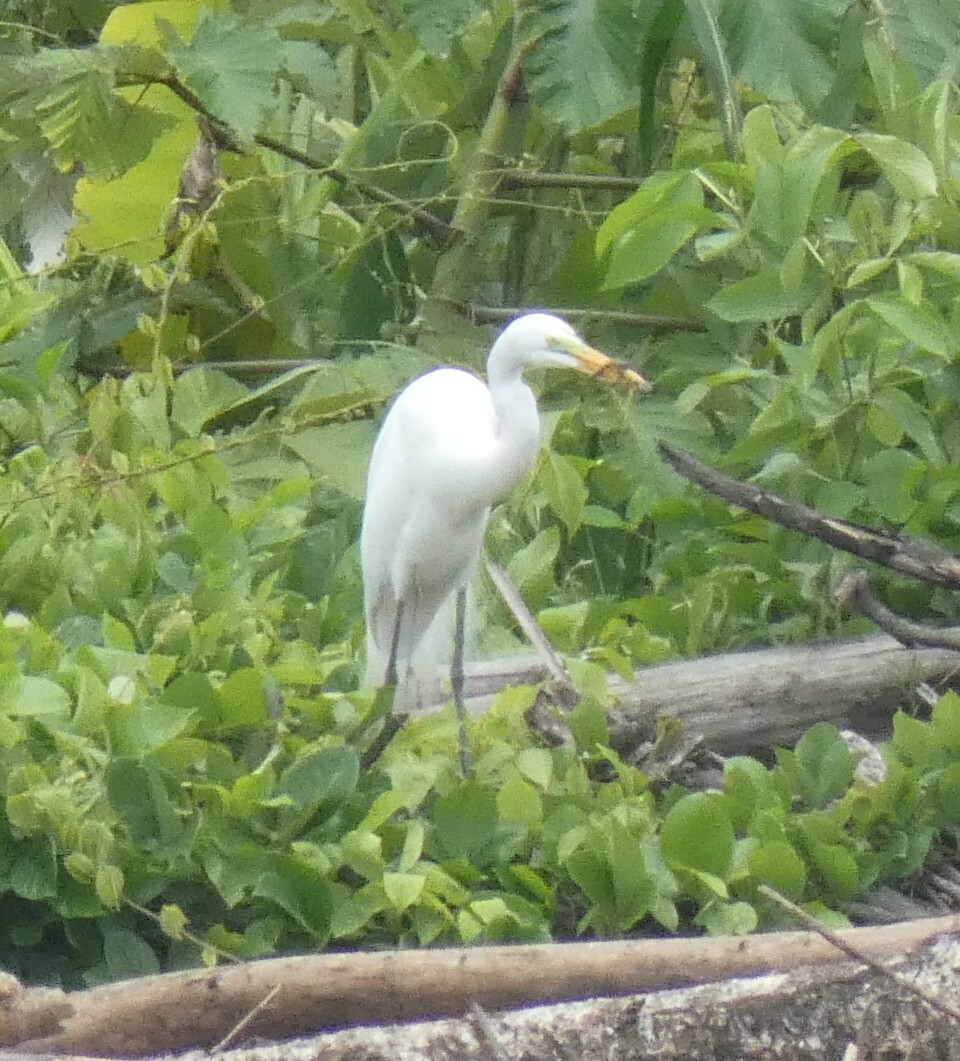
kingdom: Animalia
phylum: Chordata
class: Aves
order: Pelecaniformes
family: Ardeidae
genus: Ardea
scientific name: Ardea alba
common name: Great egret
